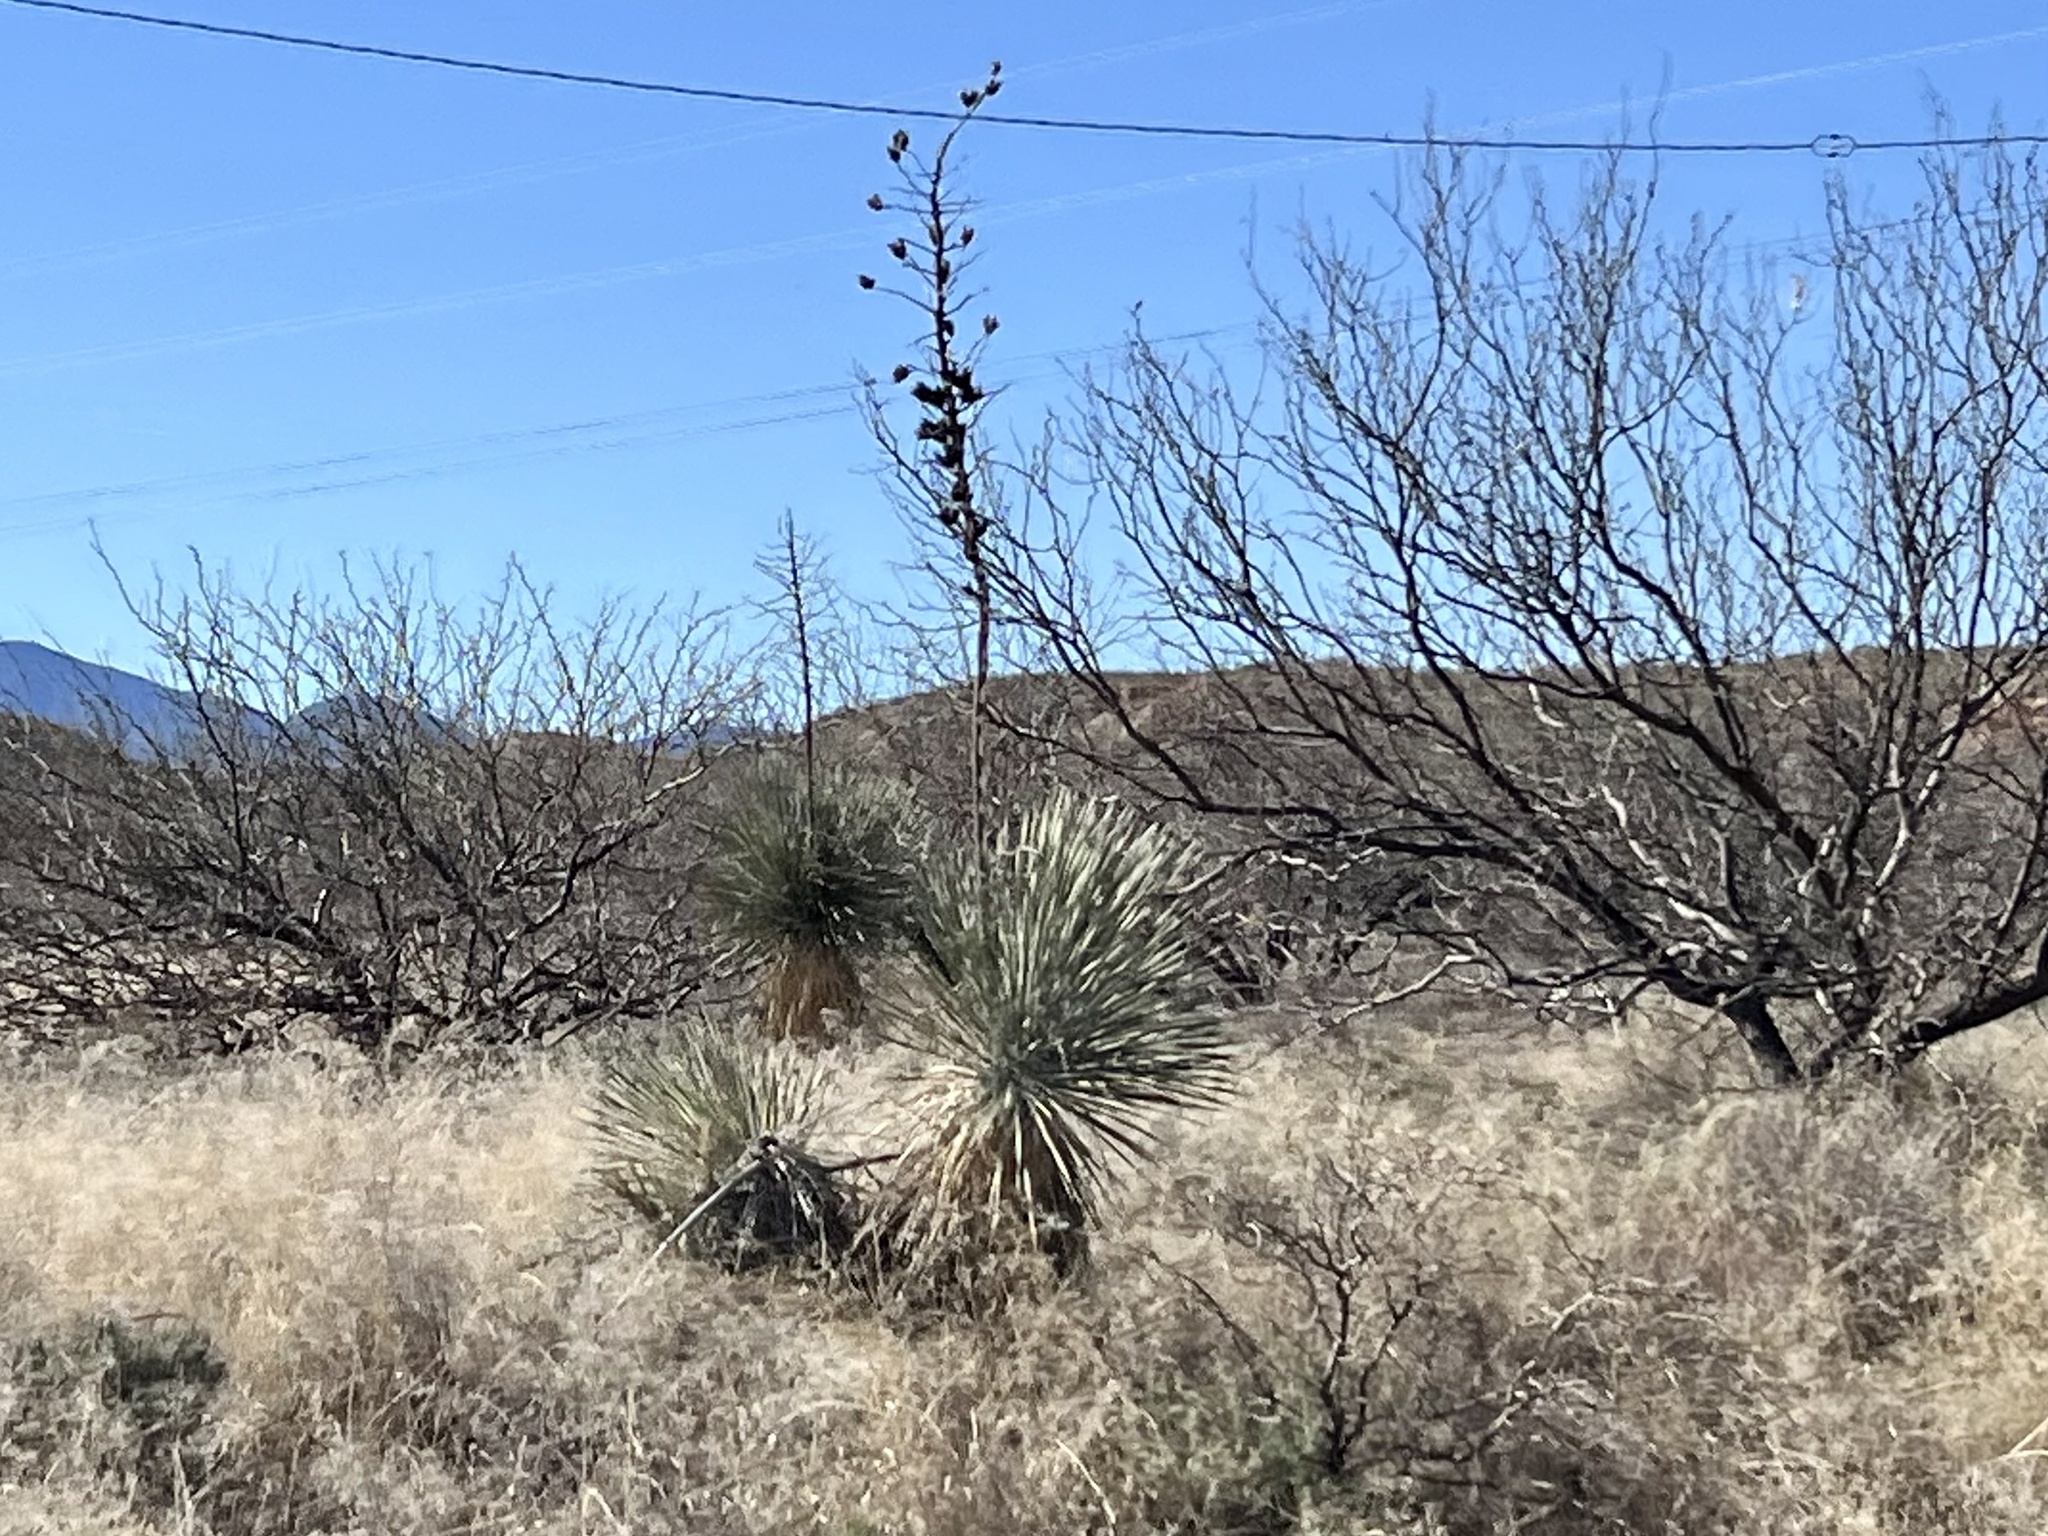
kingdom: Plantae
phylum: Tracheophyta
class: Liliopsida
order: Asparagales
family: Asparagaceae
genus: Yucca
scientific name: Yucca elata
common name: Palmella
